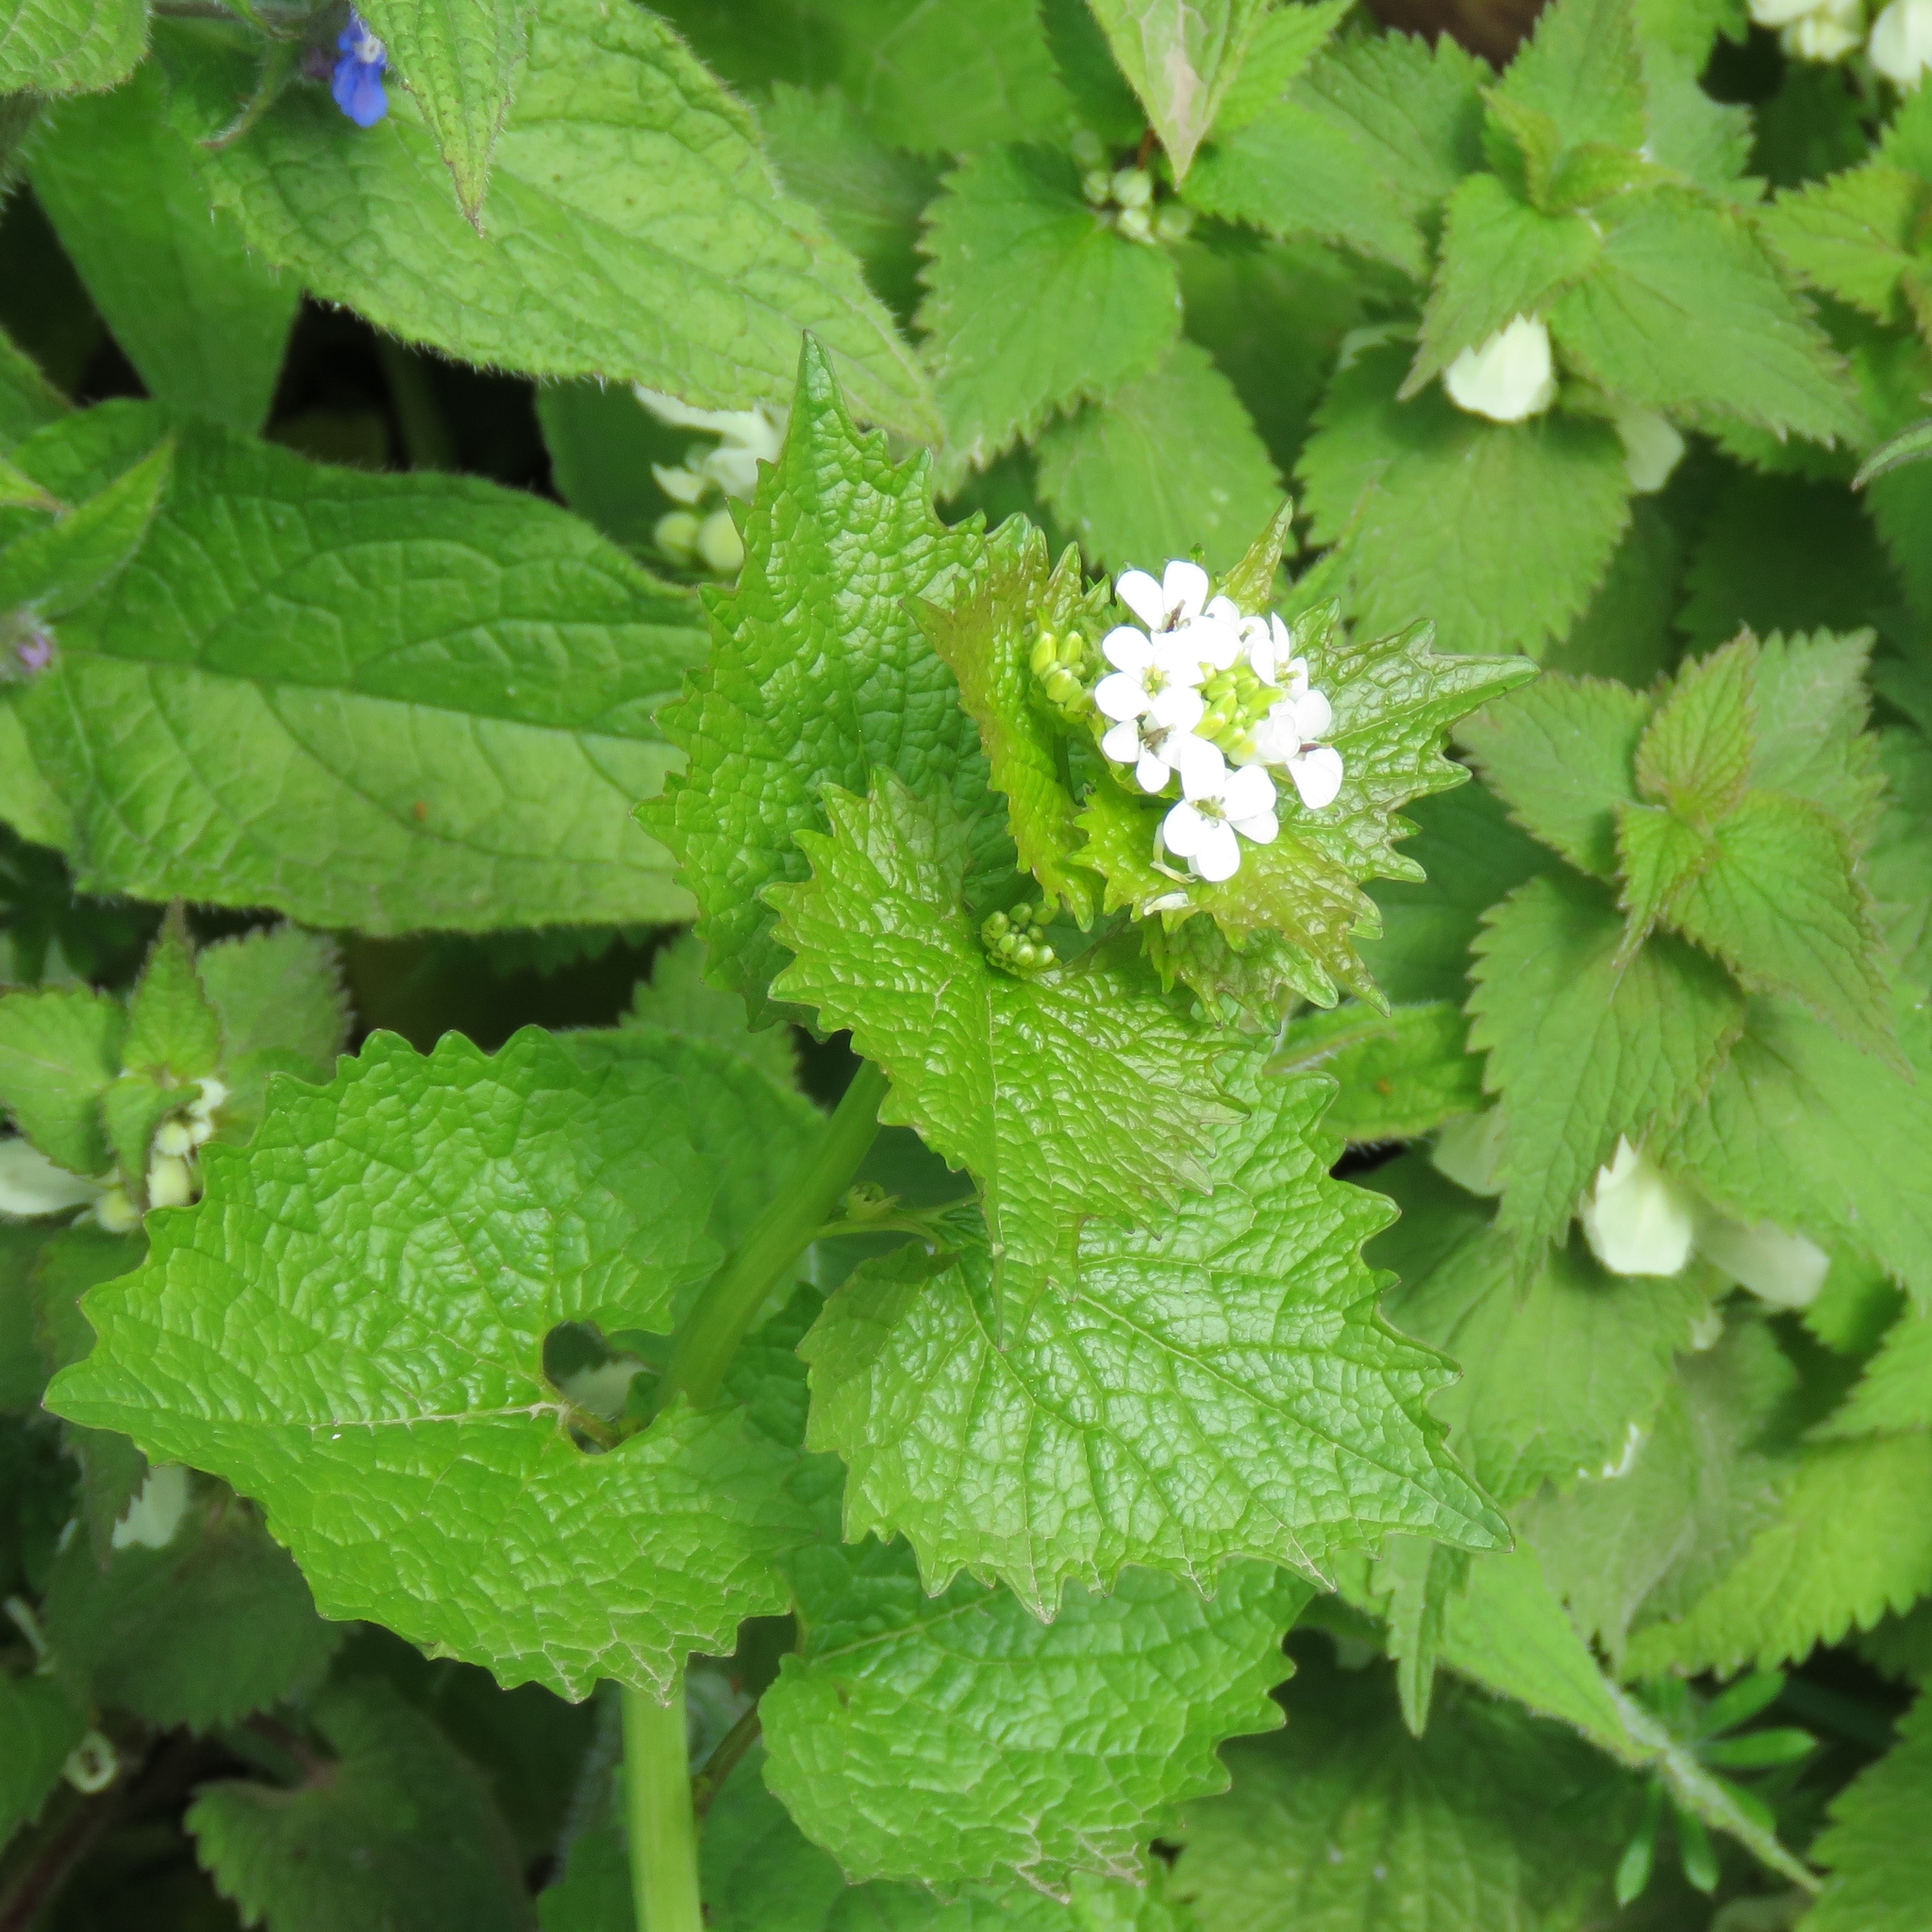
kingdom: Plantae
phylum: Tracheophyta
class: Magnoliopsida
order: Brassicales
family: Brassicaceae
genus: Alliaria
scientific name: Alliaria petiolata
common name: Garlic mustard
